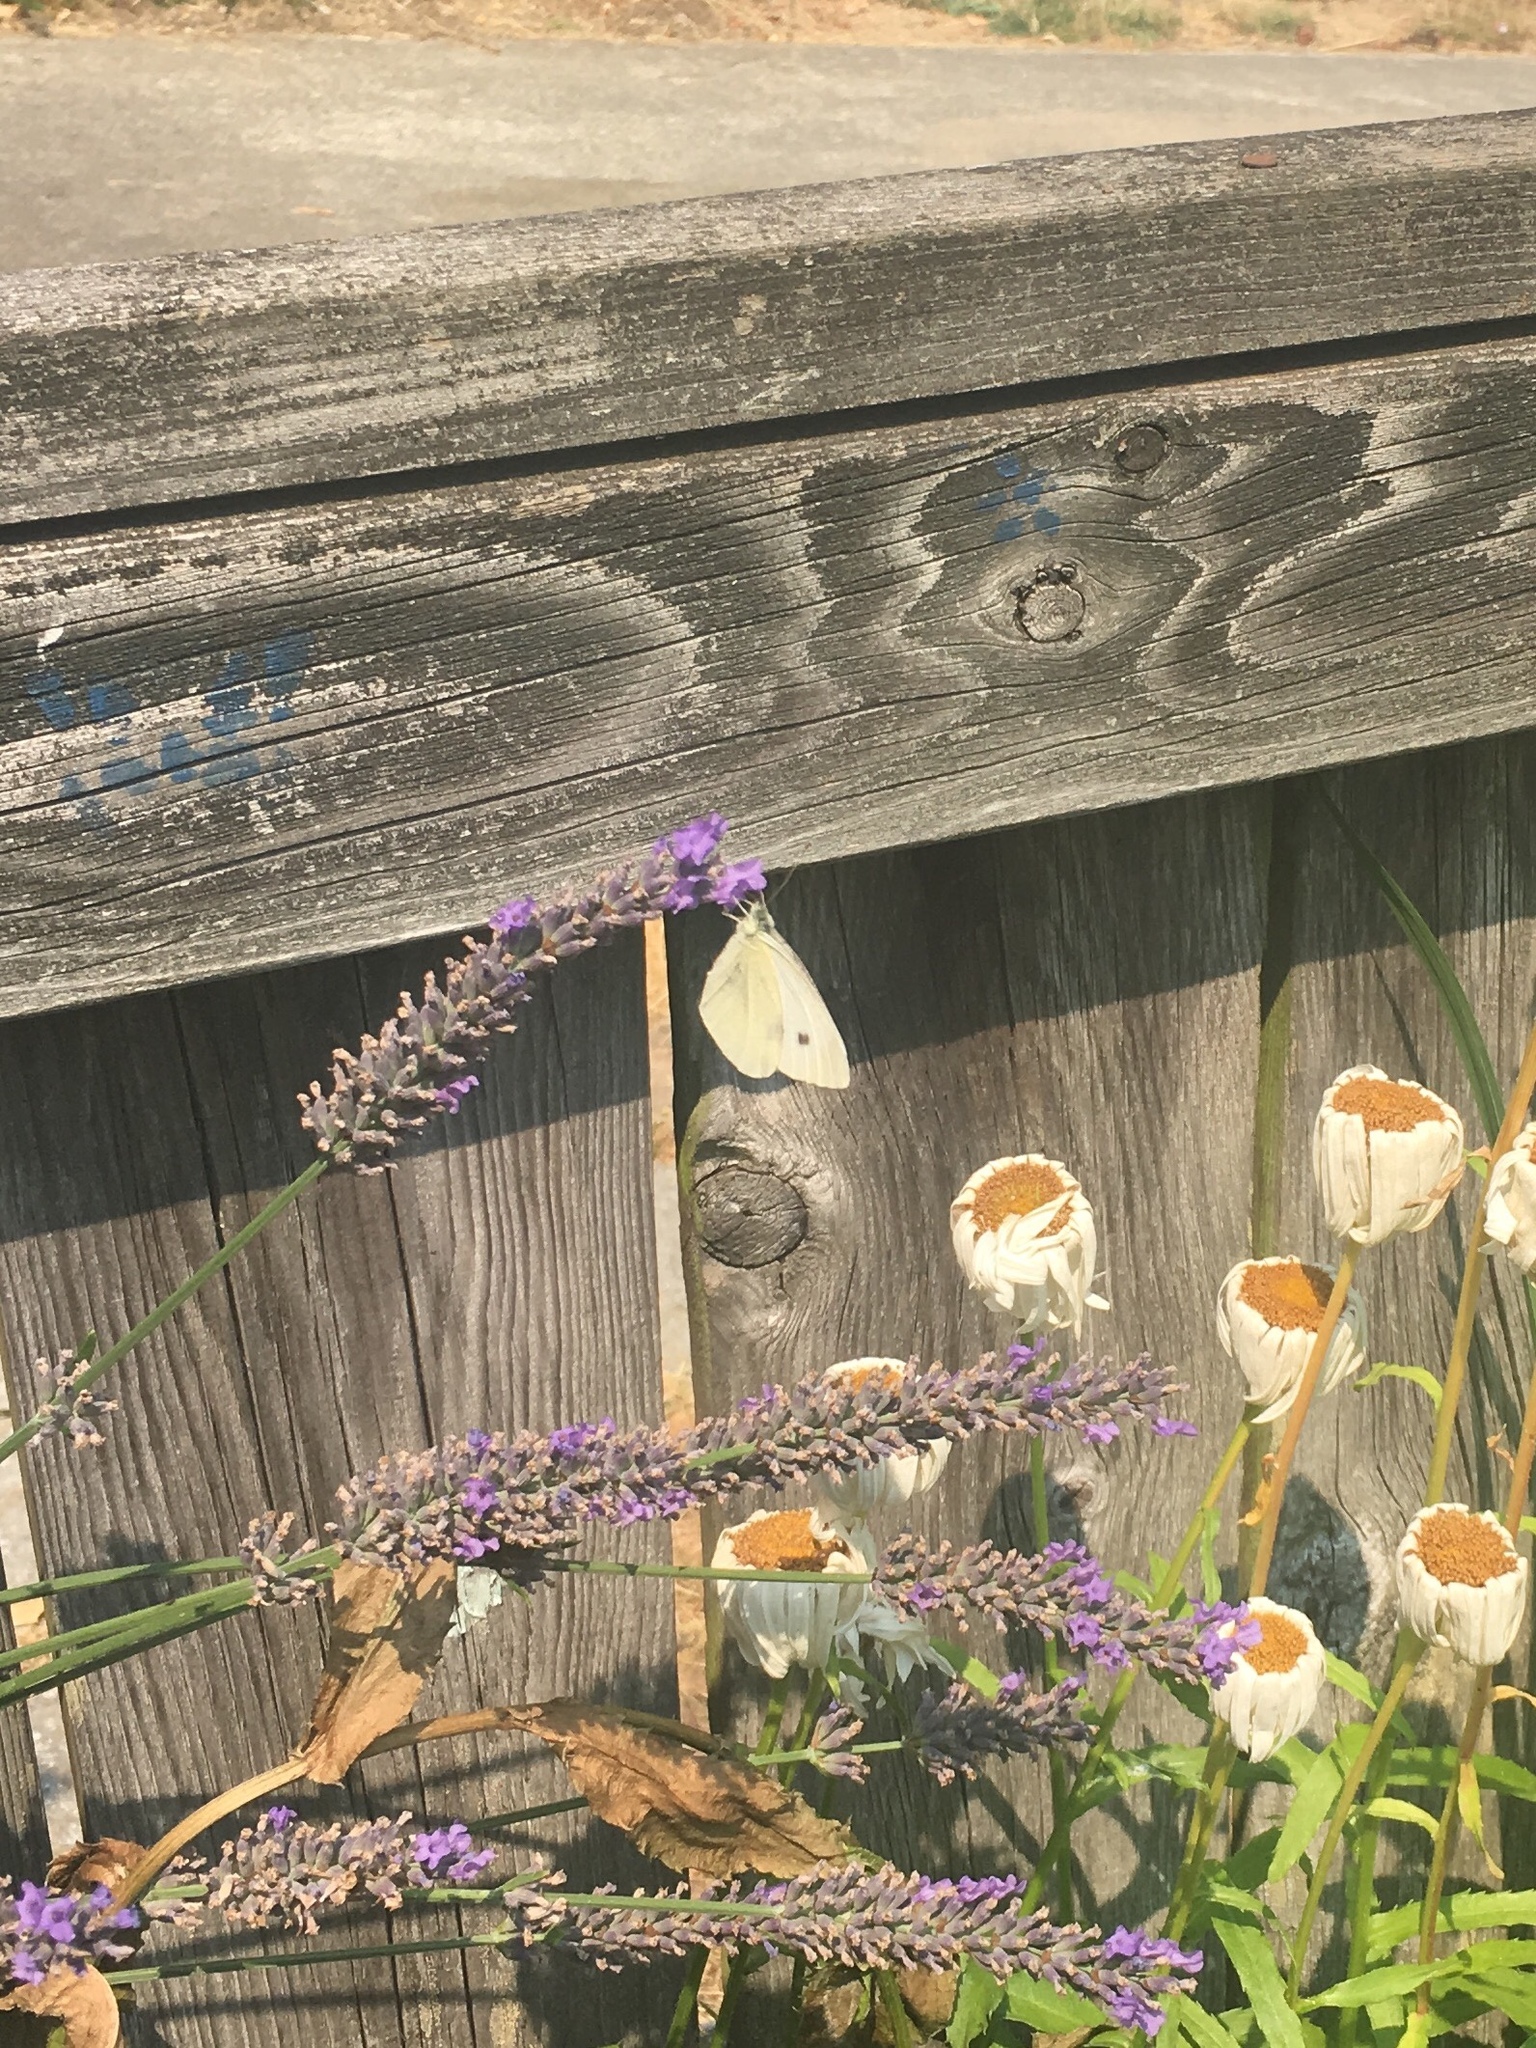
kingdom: Animalia
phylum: Arthropoda
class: Insecta
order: Lepidoptera
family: Pieridae
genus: Pieris
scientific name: Pieris rapae
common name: Small white
